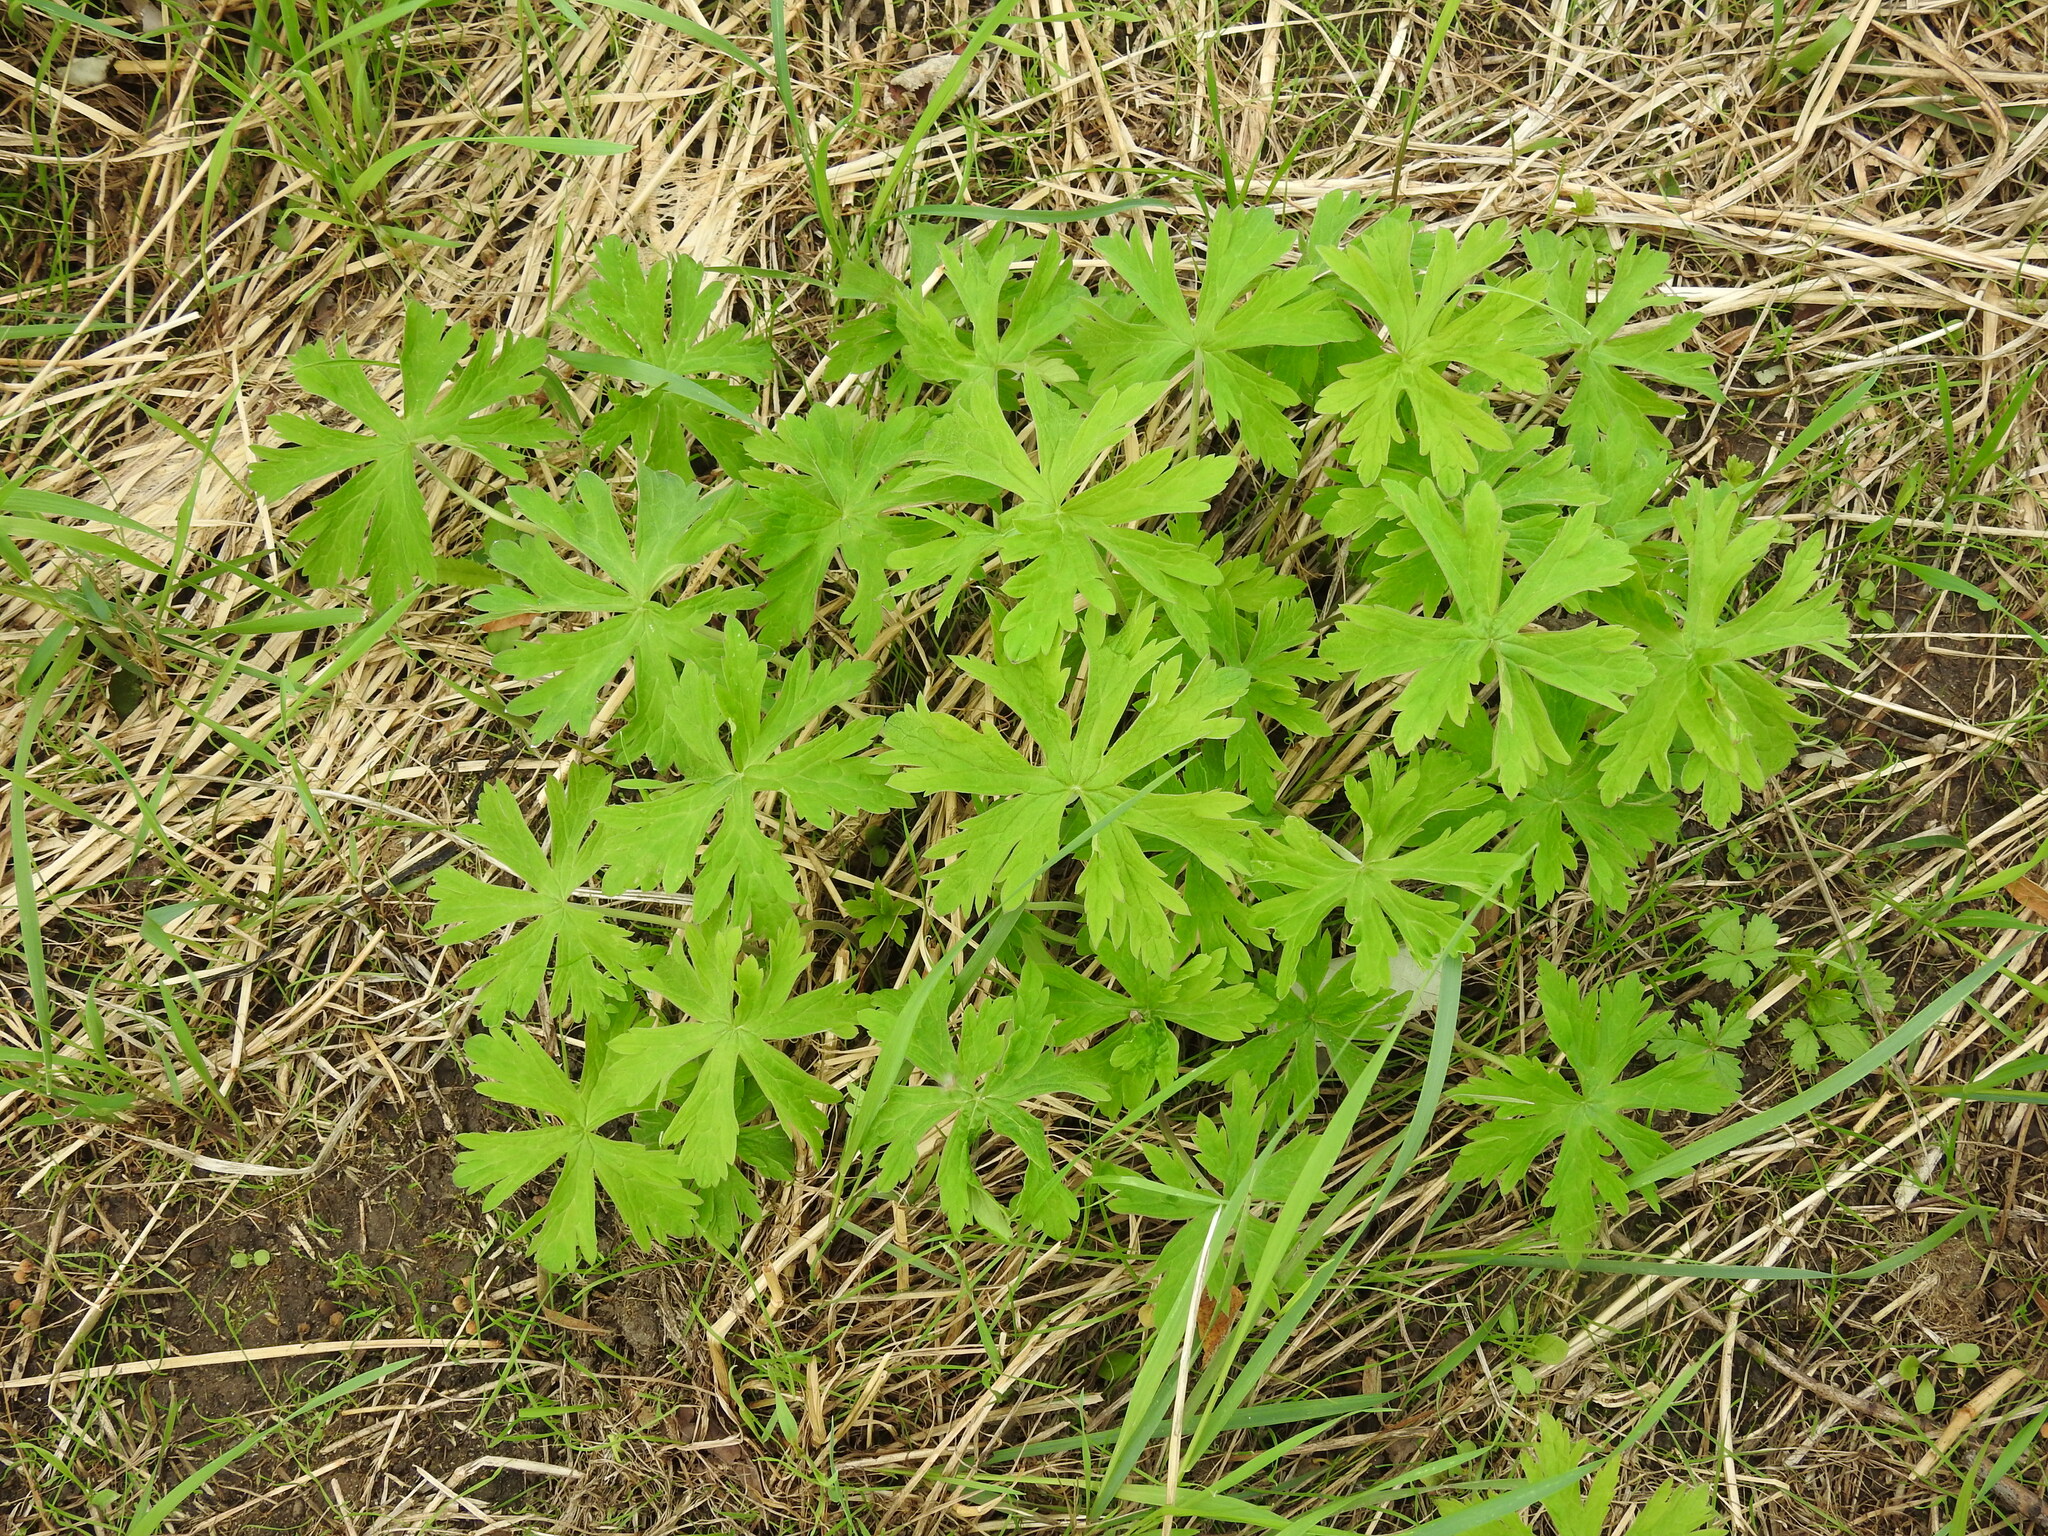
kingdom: Plantae
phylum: Tracheophyta
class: Magnoliopsida
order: Geraniales
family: Geraniaceae
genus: Geranium
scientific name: Geranium pratense
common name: Meadow crane's-bill
